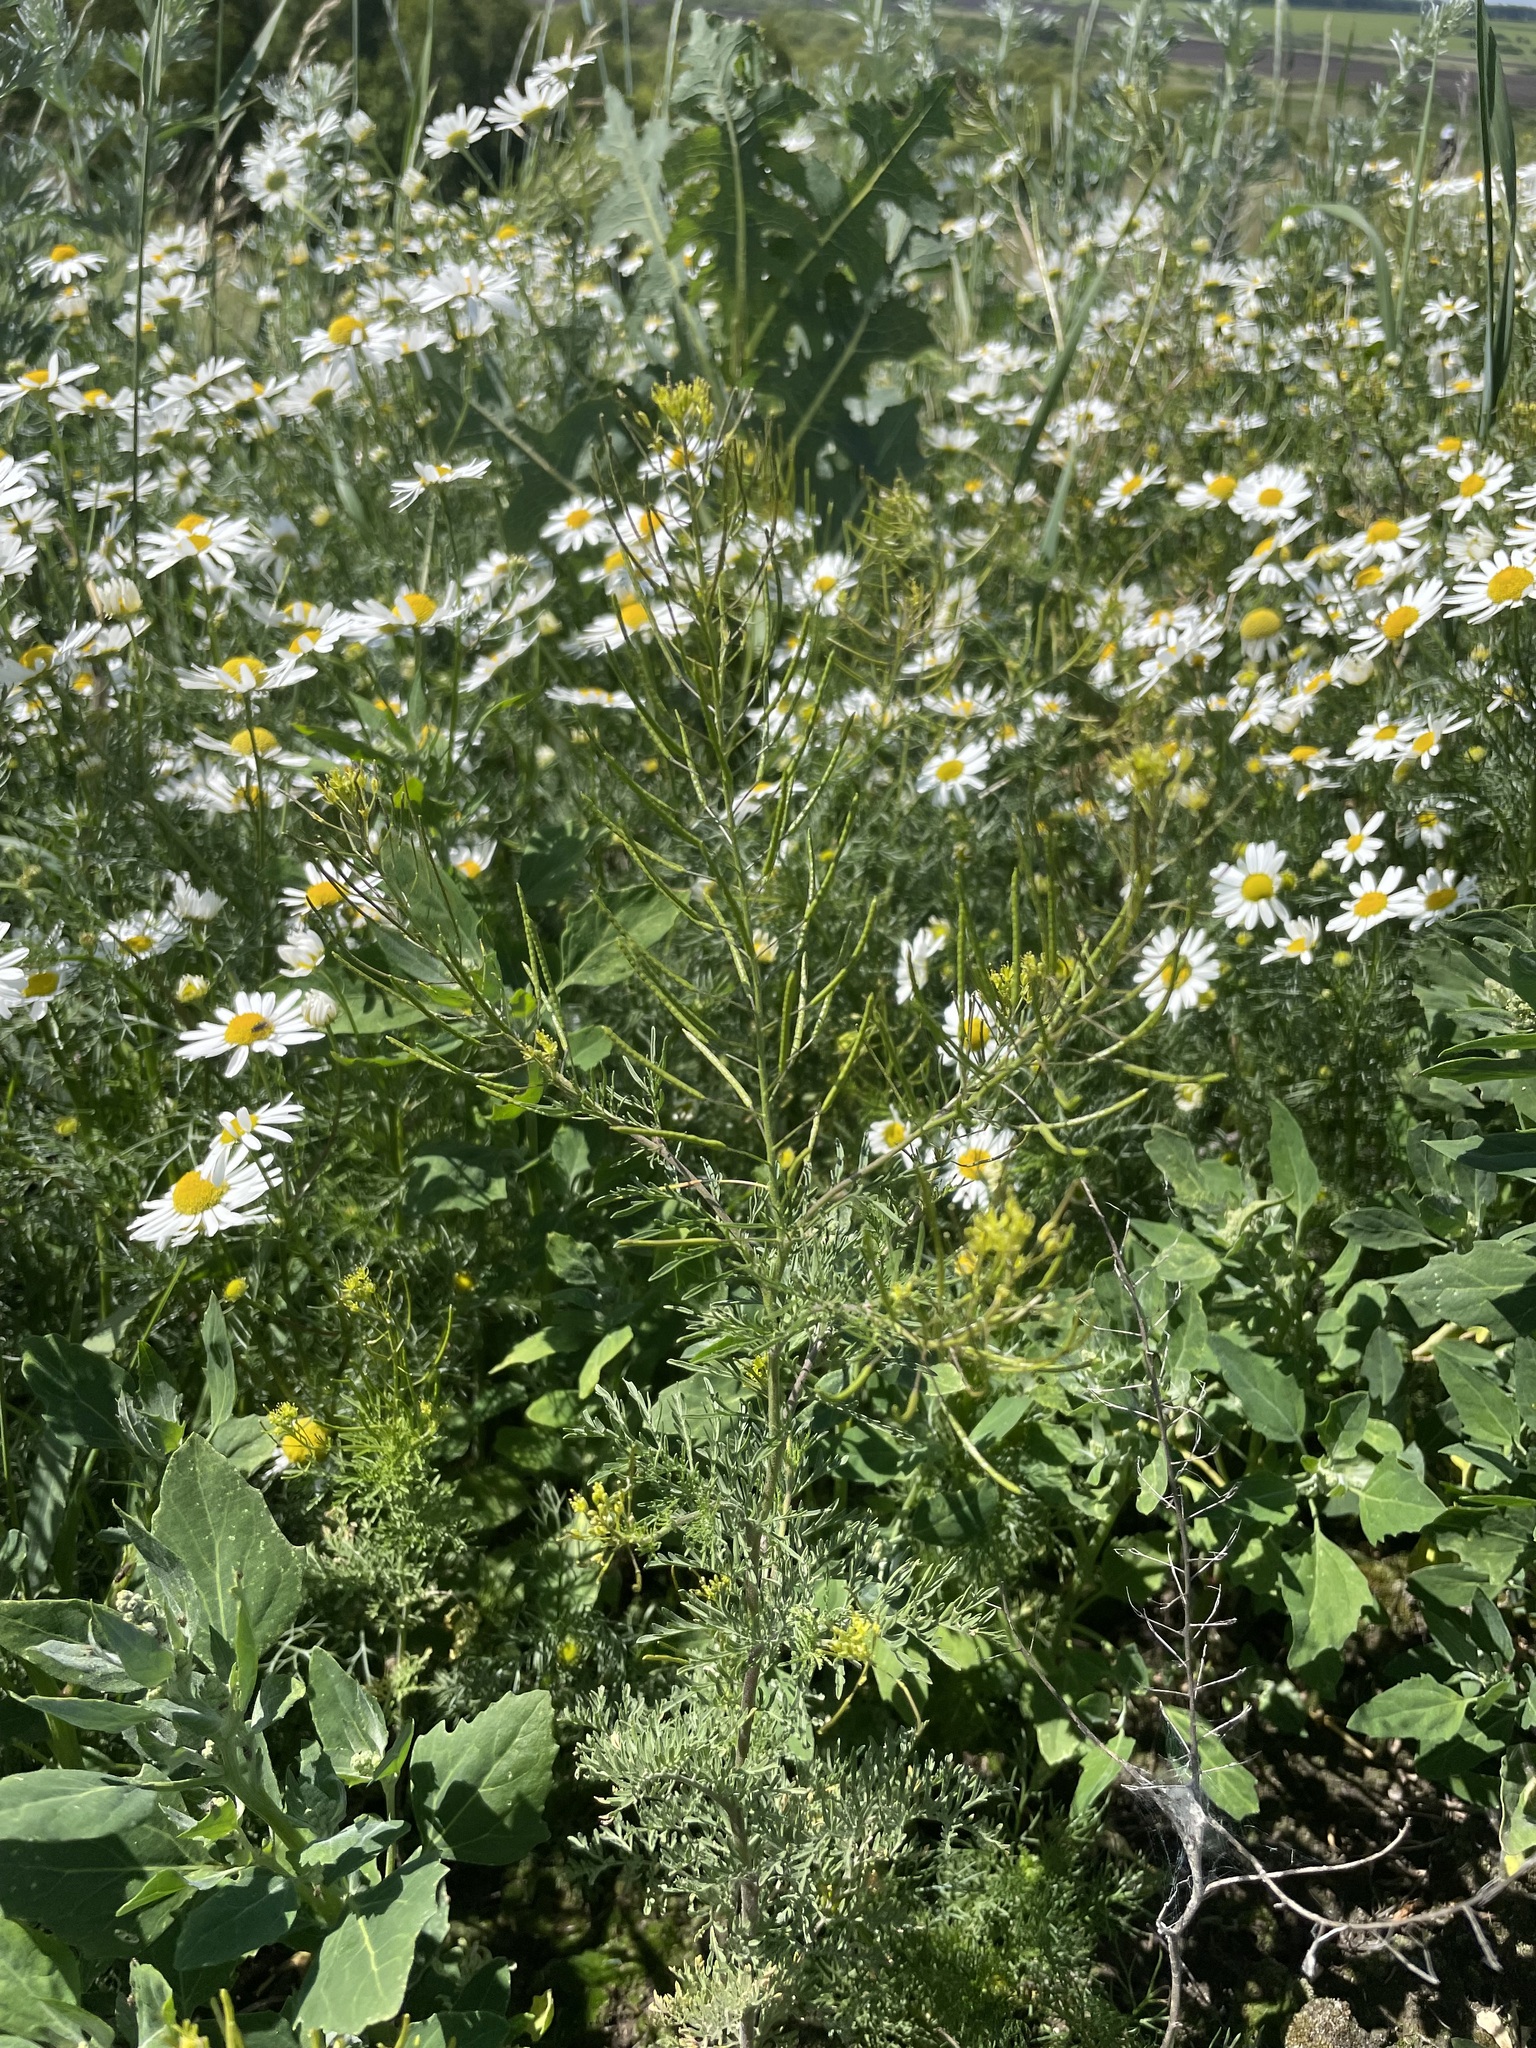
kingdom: Plantae
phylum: Tracheophyta
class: Magnoliopsida
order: Brassicales
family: Brassicaceae
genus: Descurainia
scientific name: Descurainia sophia
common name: Flixweed
